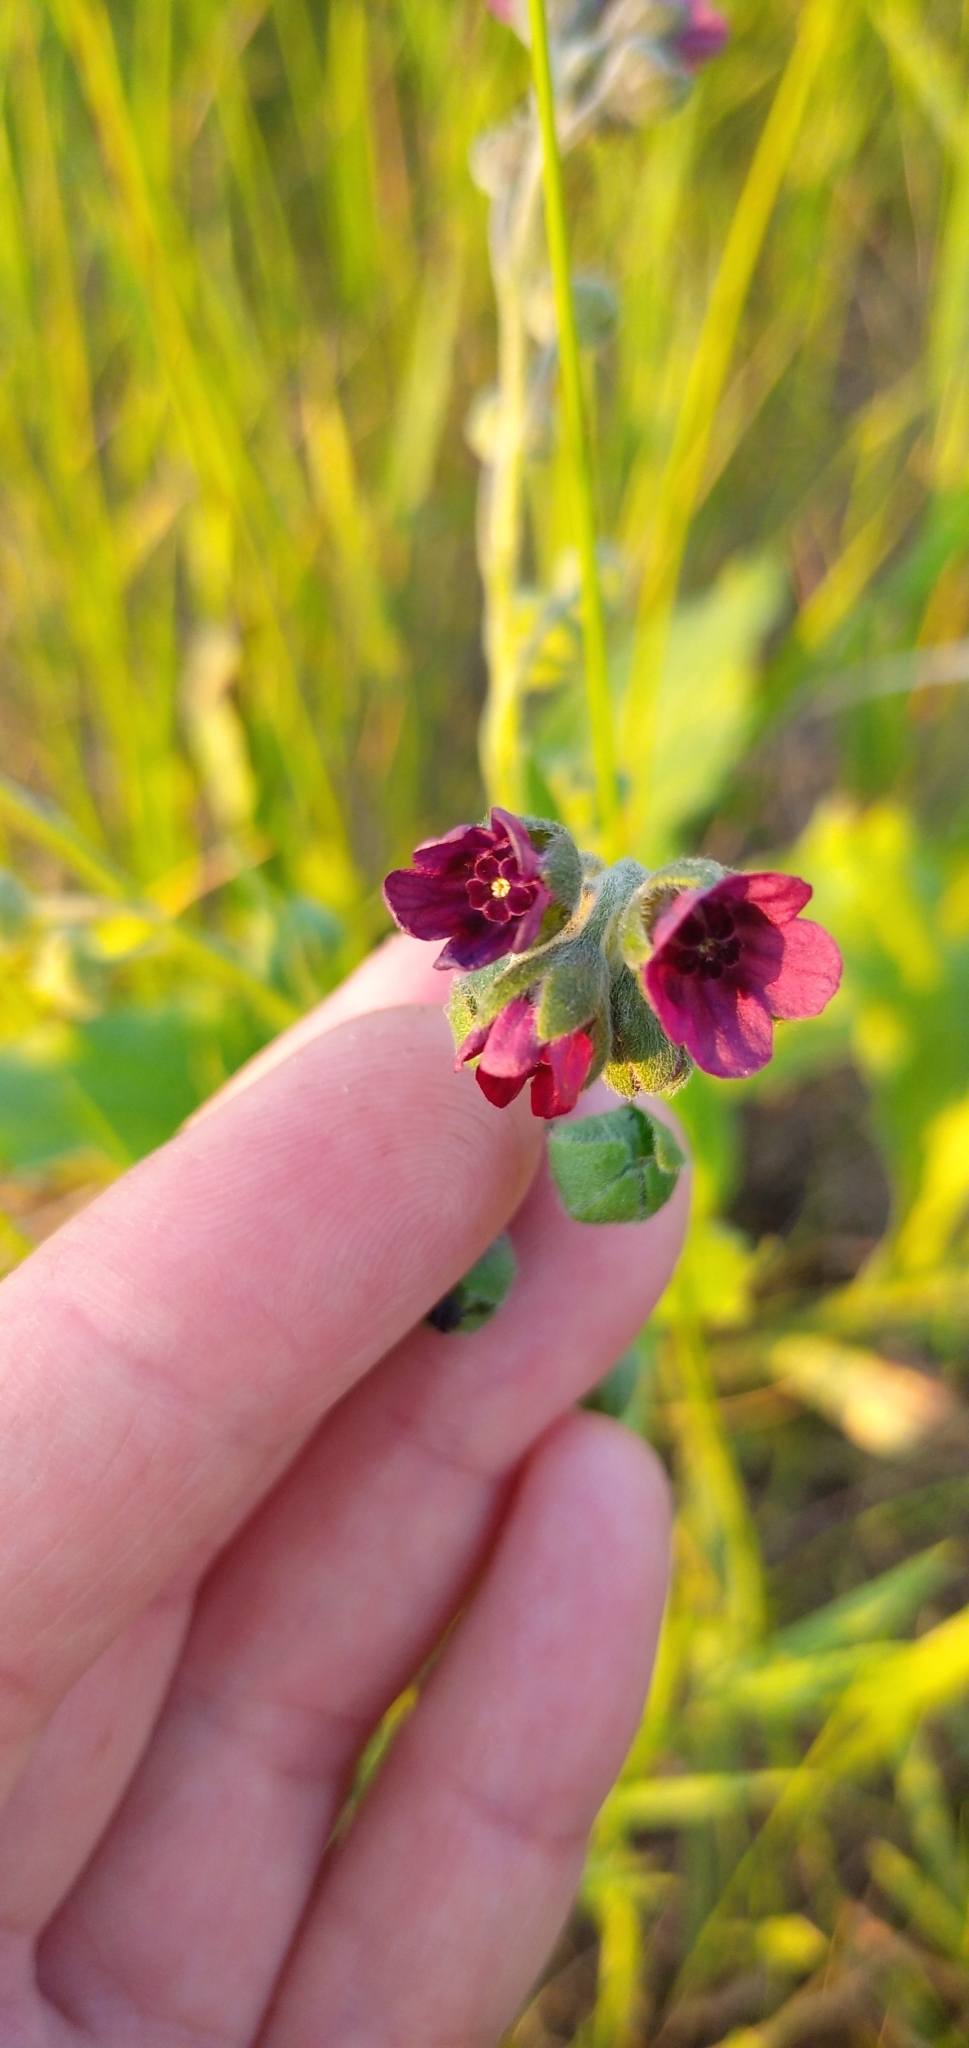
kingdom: Plantae
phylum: Tracheophyta
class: Magnoliopsida
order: Boraginales
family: Boraginaceae
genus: Cynoglossum
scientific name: Cynoglossum officinale
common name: Hound's-tongue
